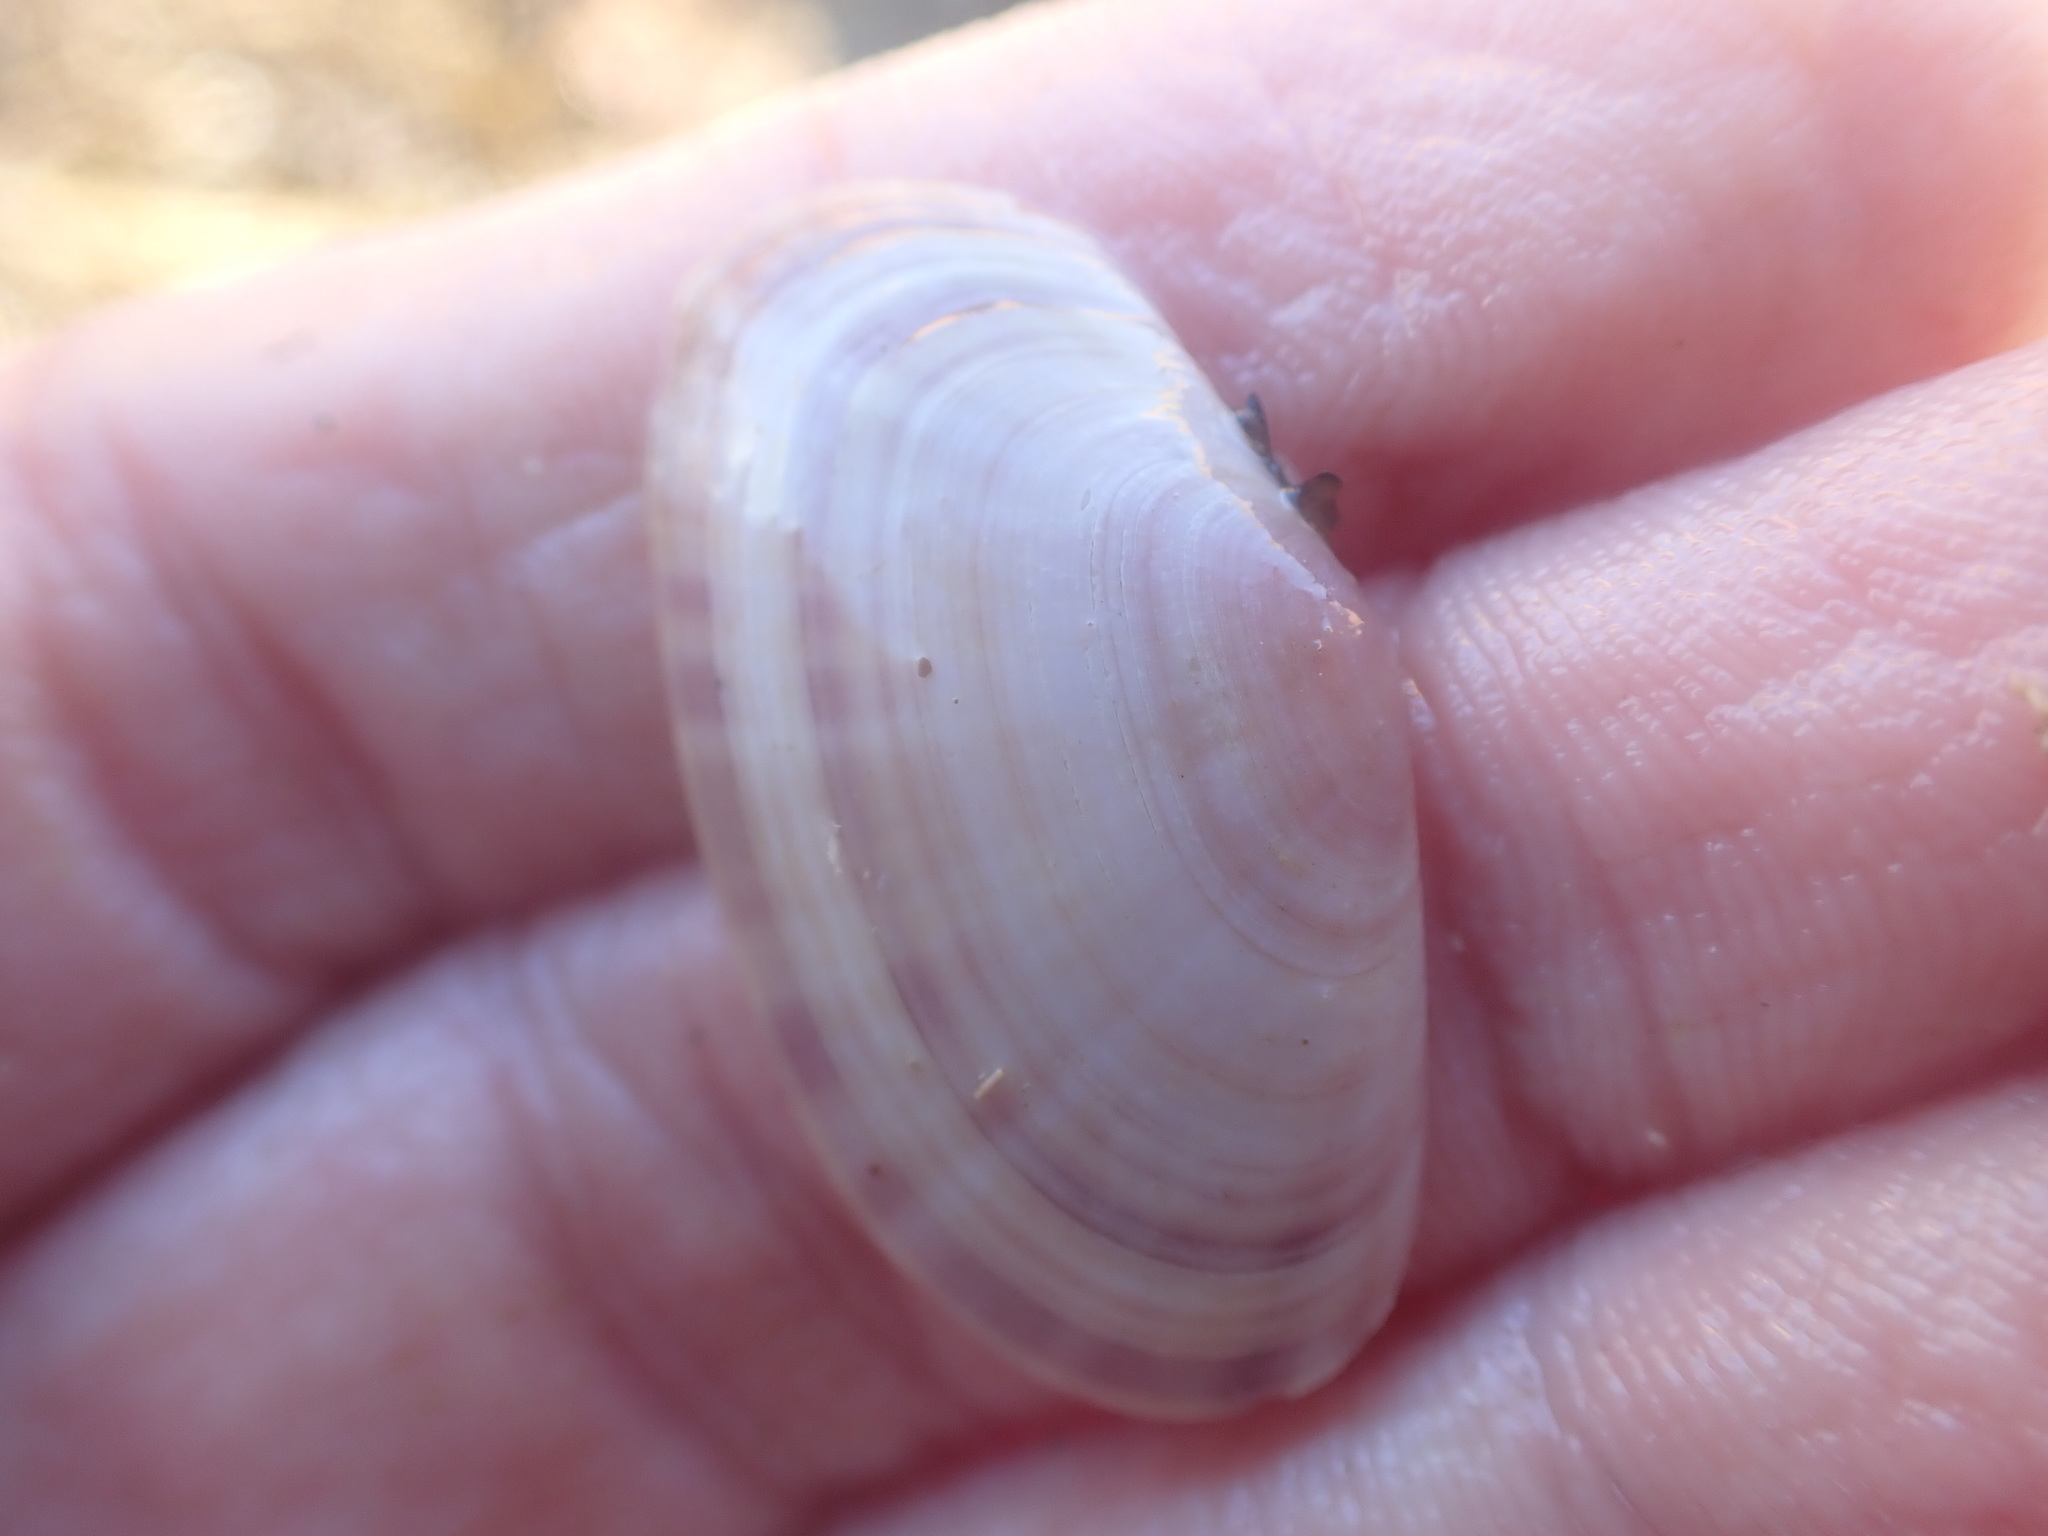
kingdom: Animalia
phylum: Mollusca
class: Bivalvia
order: Cardiida
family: Psammobiidae
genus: Gari
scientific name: Gari stangeri
